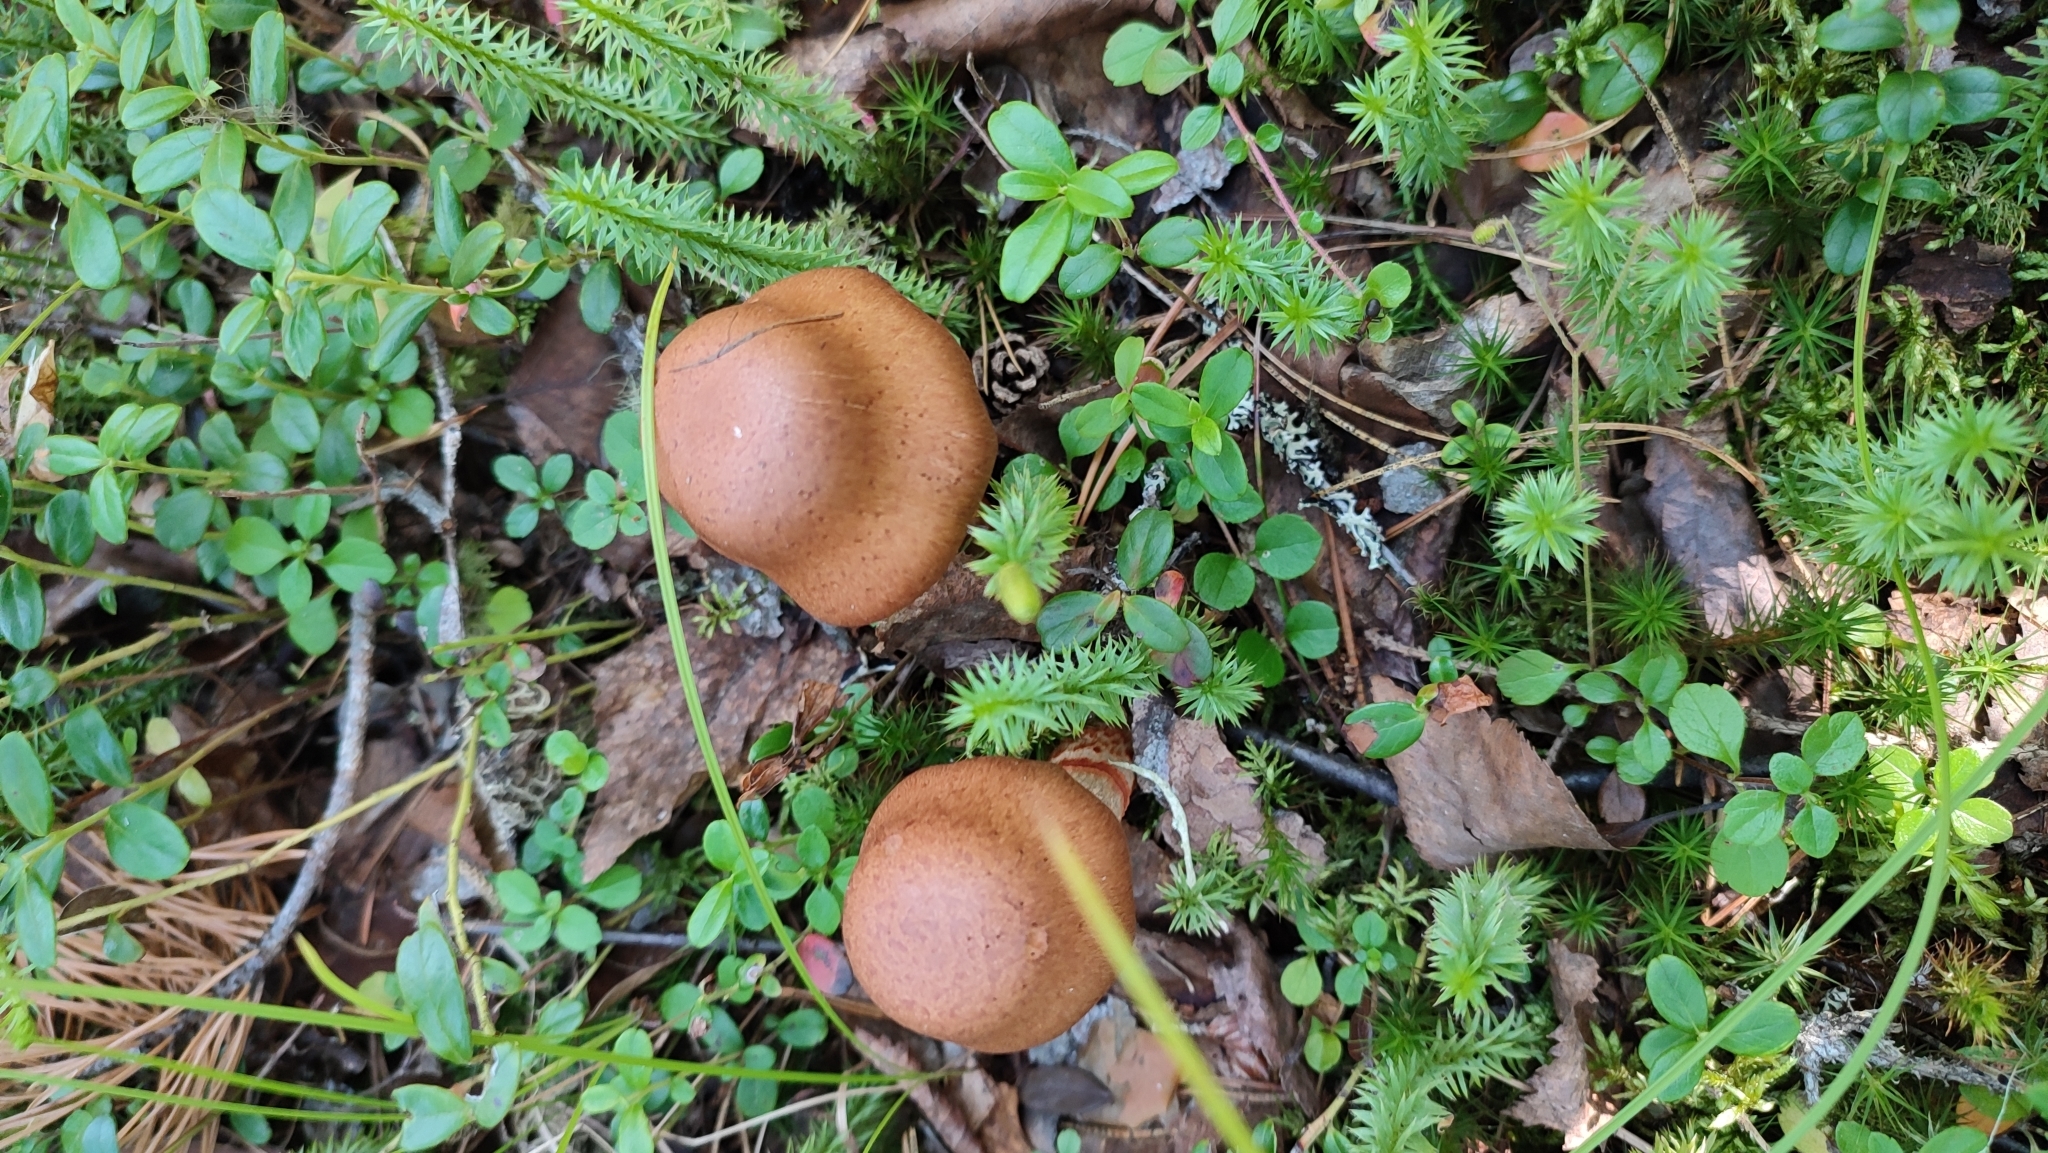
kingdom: Fungi
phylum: Basidiomycota
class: Agaricomycetes
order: Agaricales
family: Cortinariaceae
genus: Cortinarius
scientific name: Cortinarius armillatus
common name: Red banded webcap
